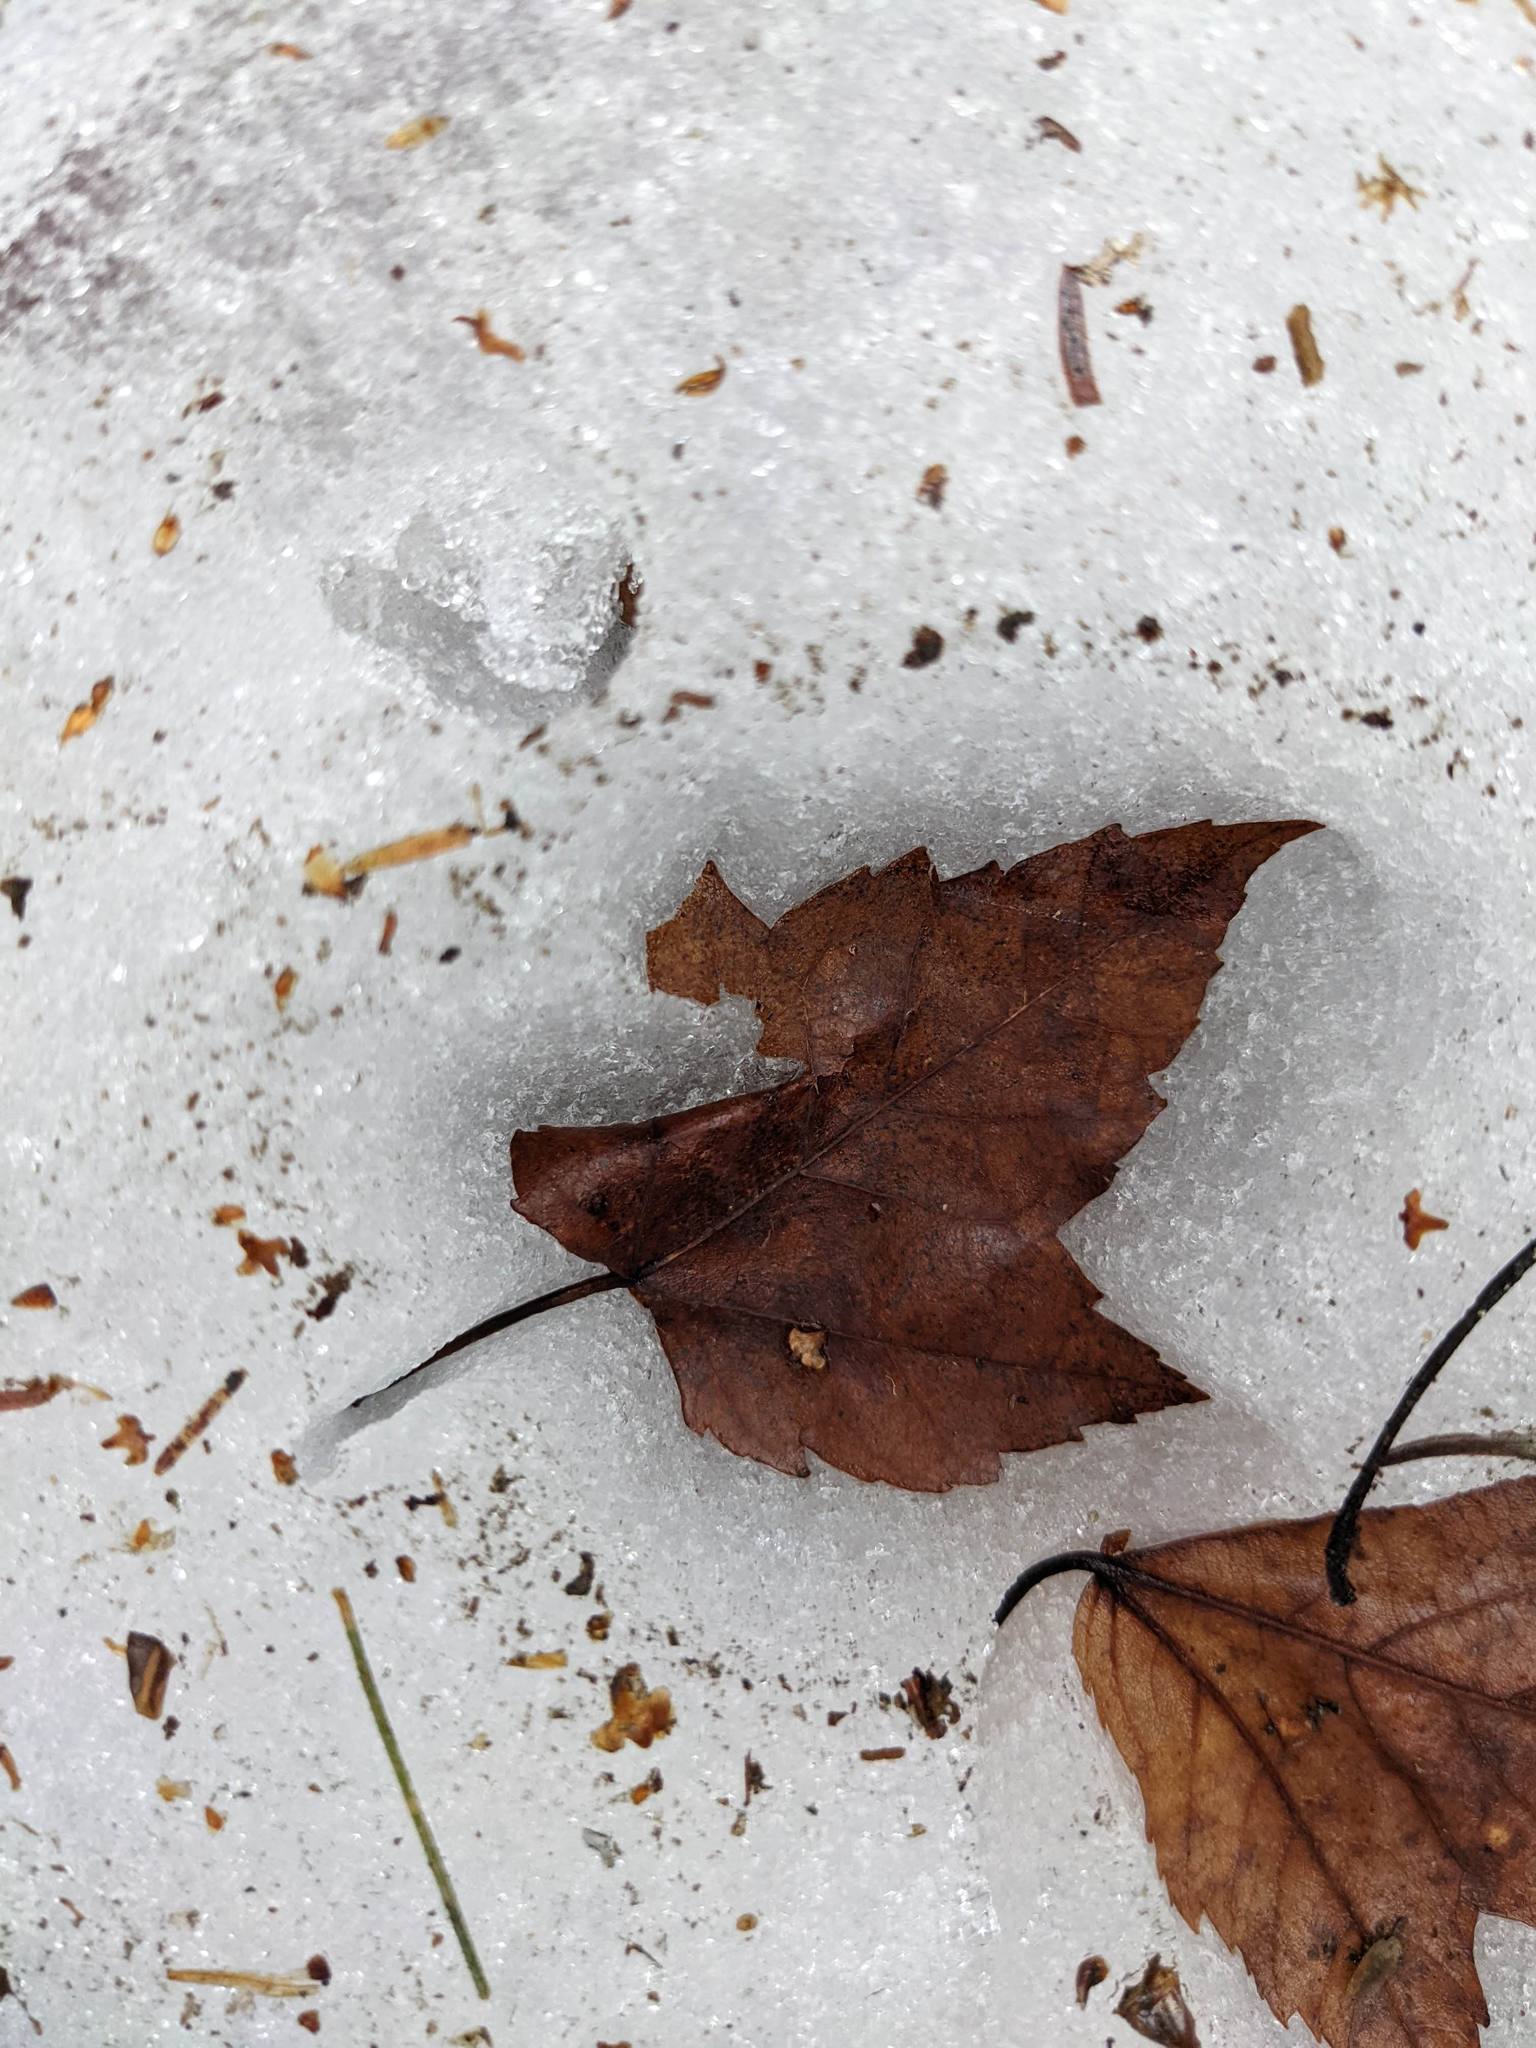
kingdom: Plantae
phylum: Tracheophyta
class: Magnoliopsida
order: Sapindales
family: Sapindaceae
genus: Acer
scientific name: Acer rubrum
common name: Red maple
